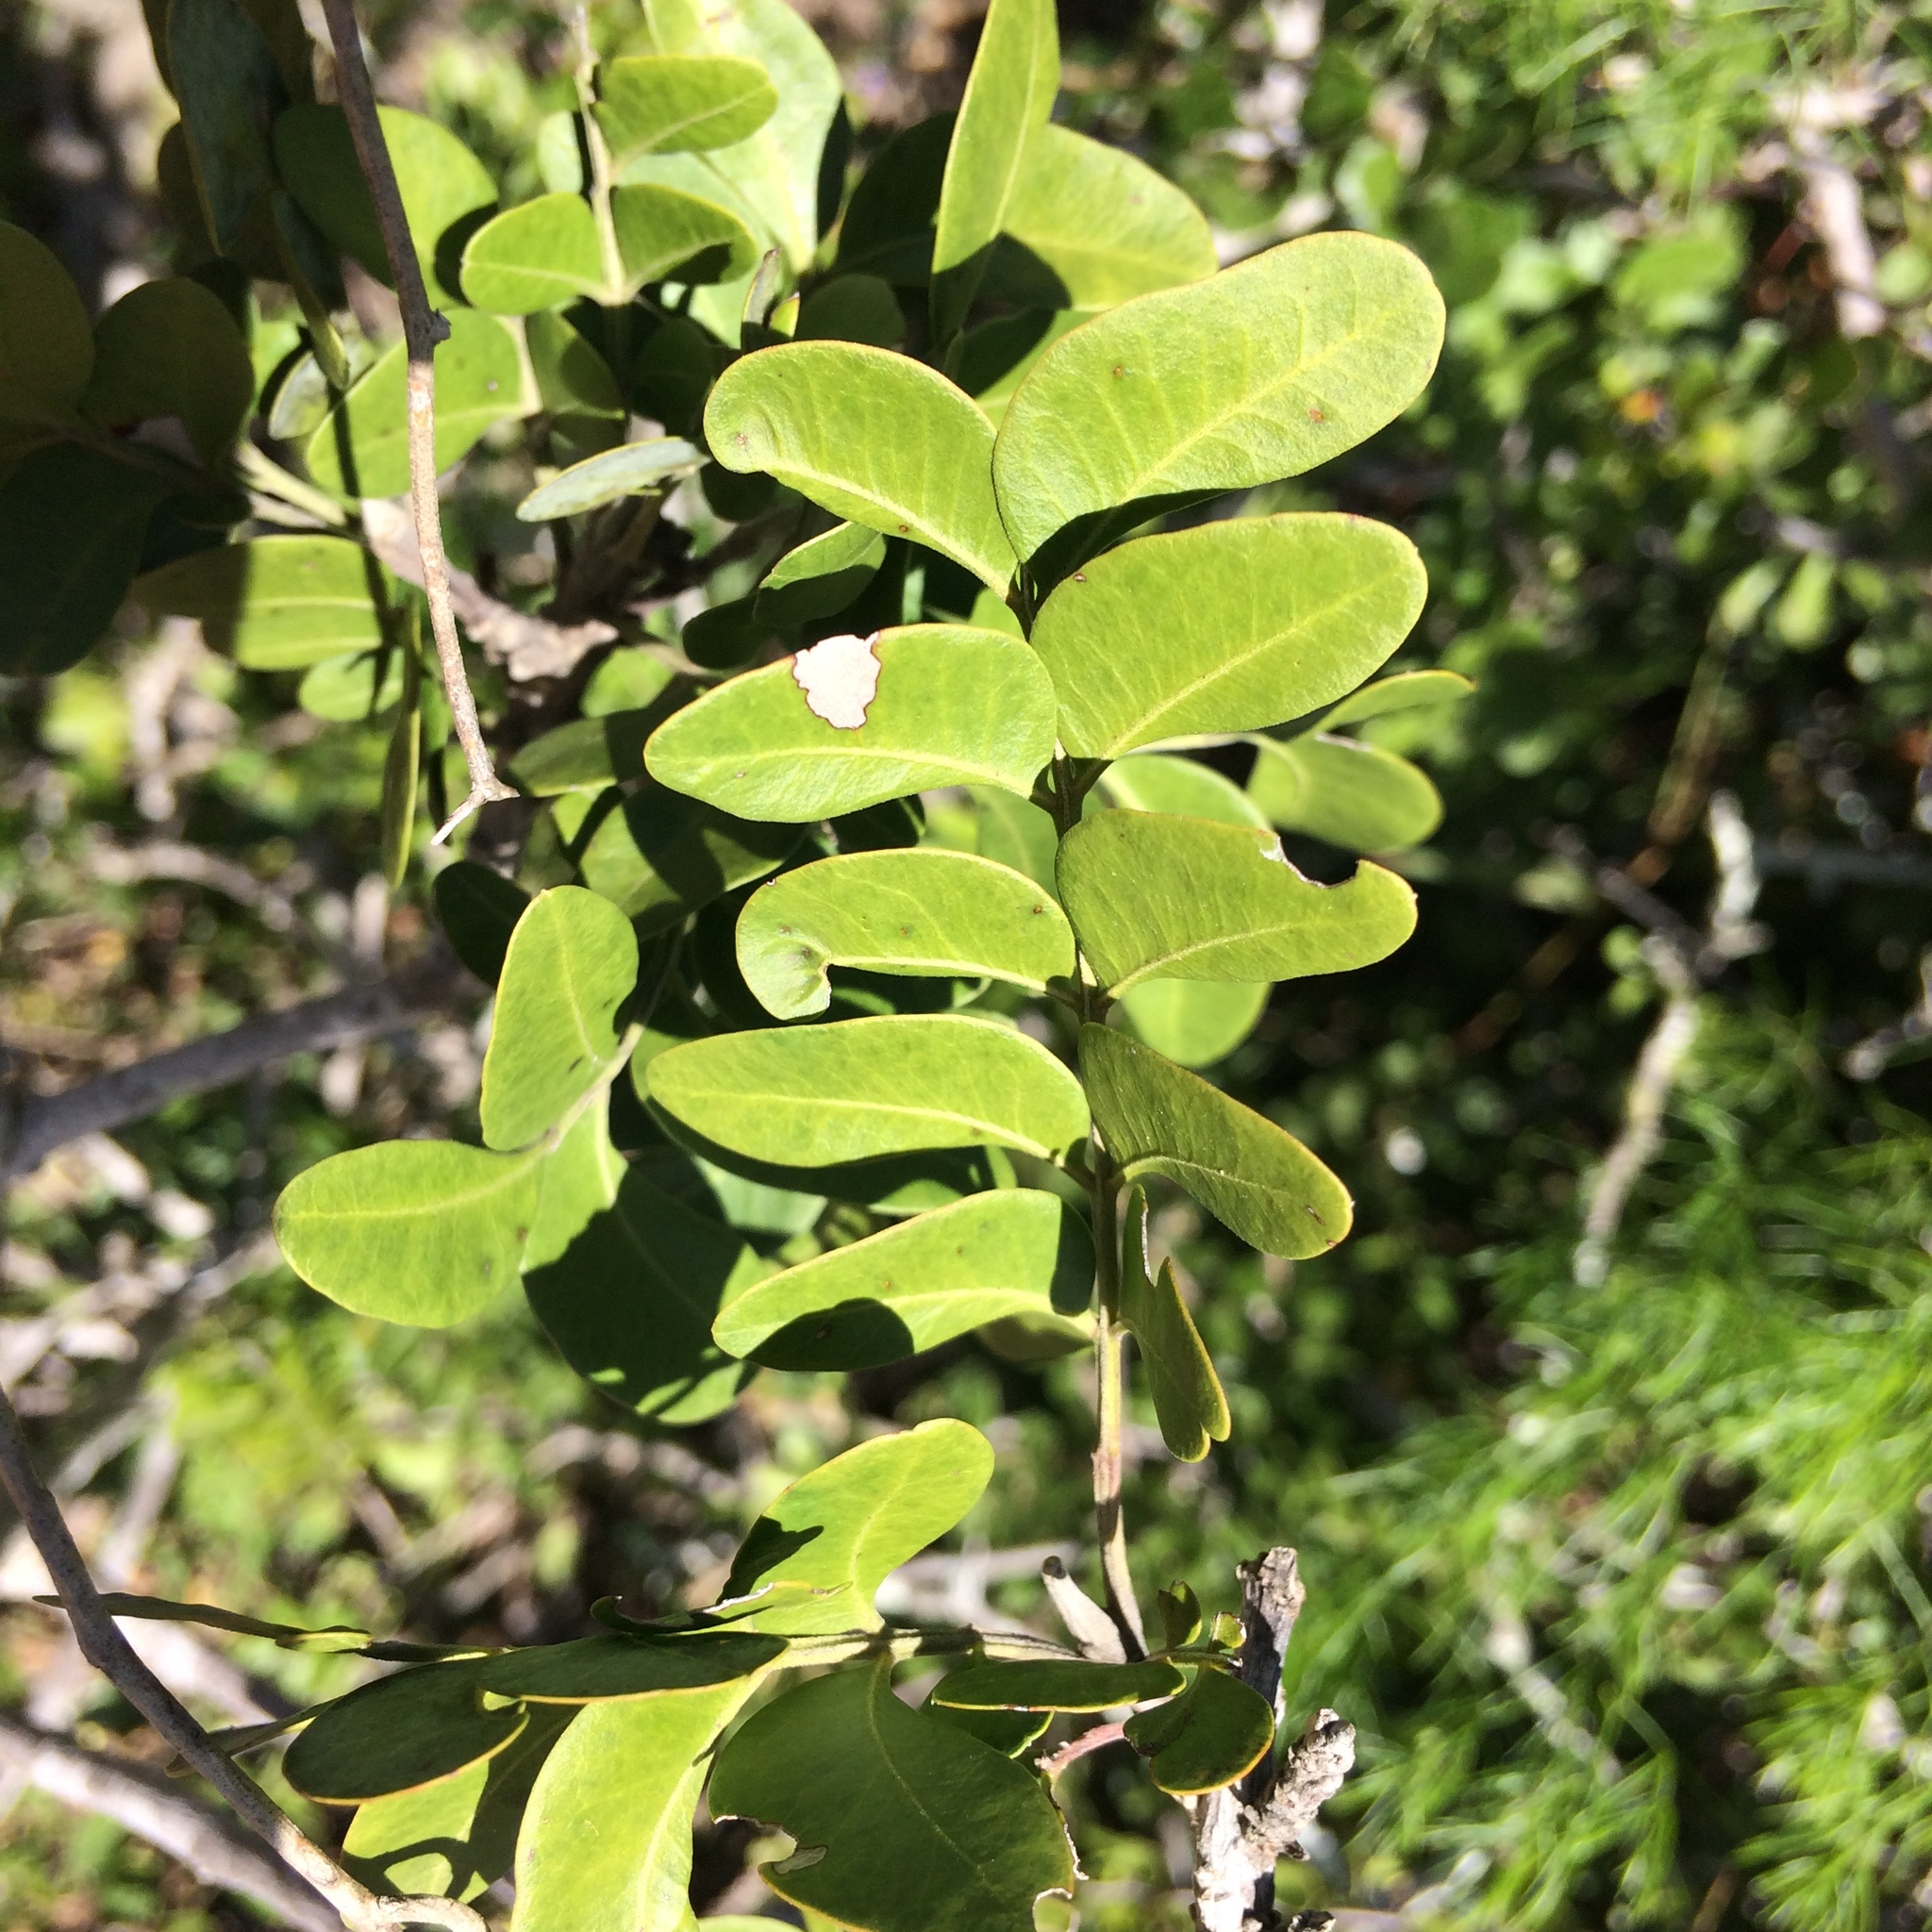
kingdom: Plantae
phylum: Tracheophyta
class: Magnoliopsida
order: Sapindales
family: Rutaceae
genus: Ptaeroxylon
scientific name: Ptaeroxylon obliquum
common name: Sneezewood
